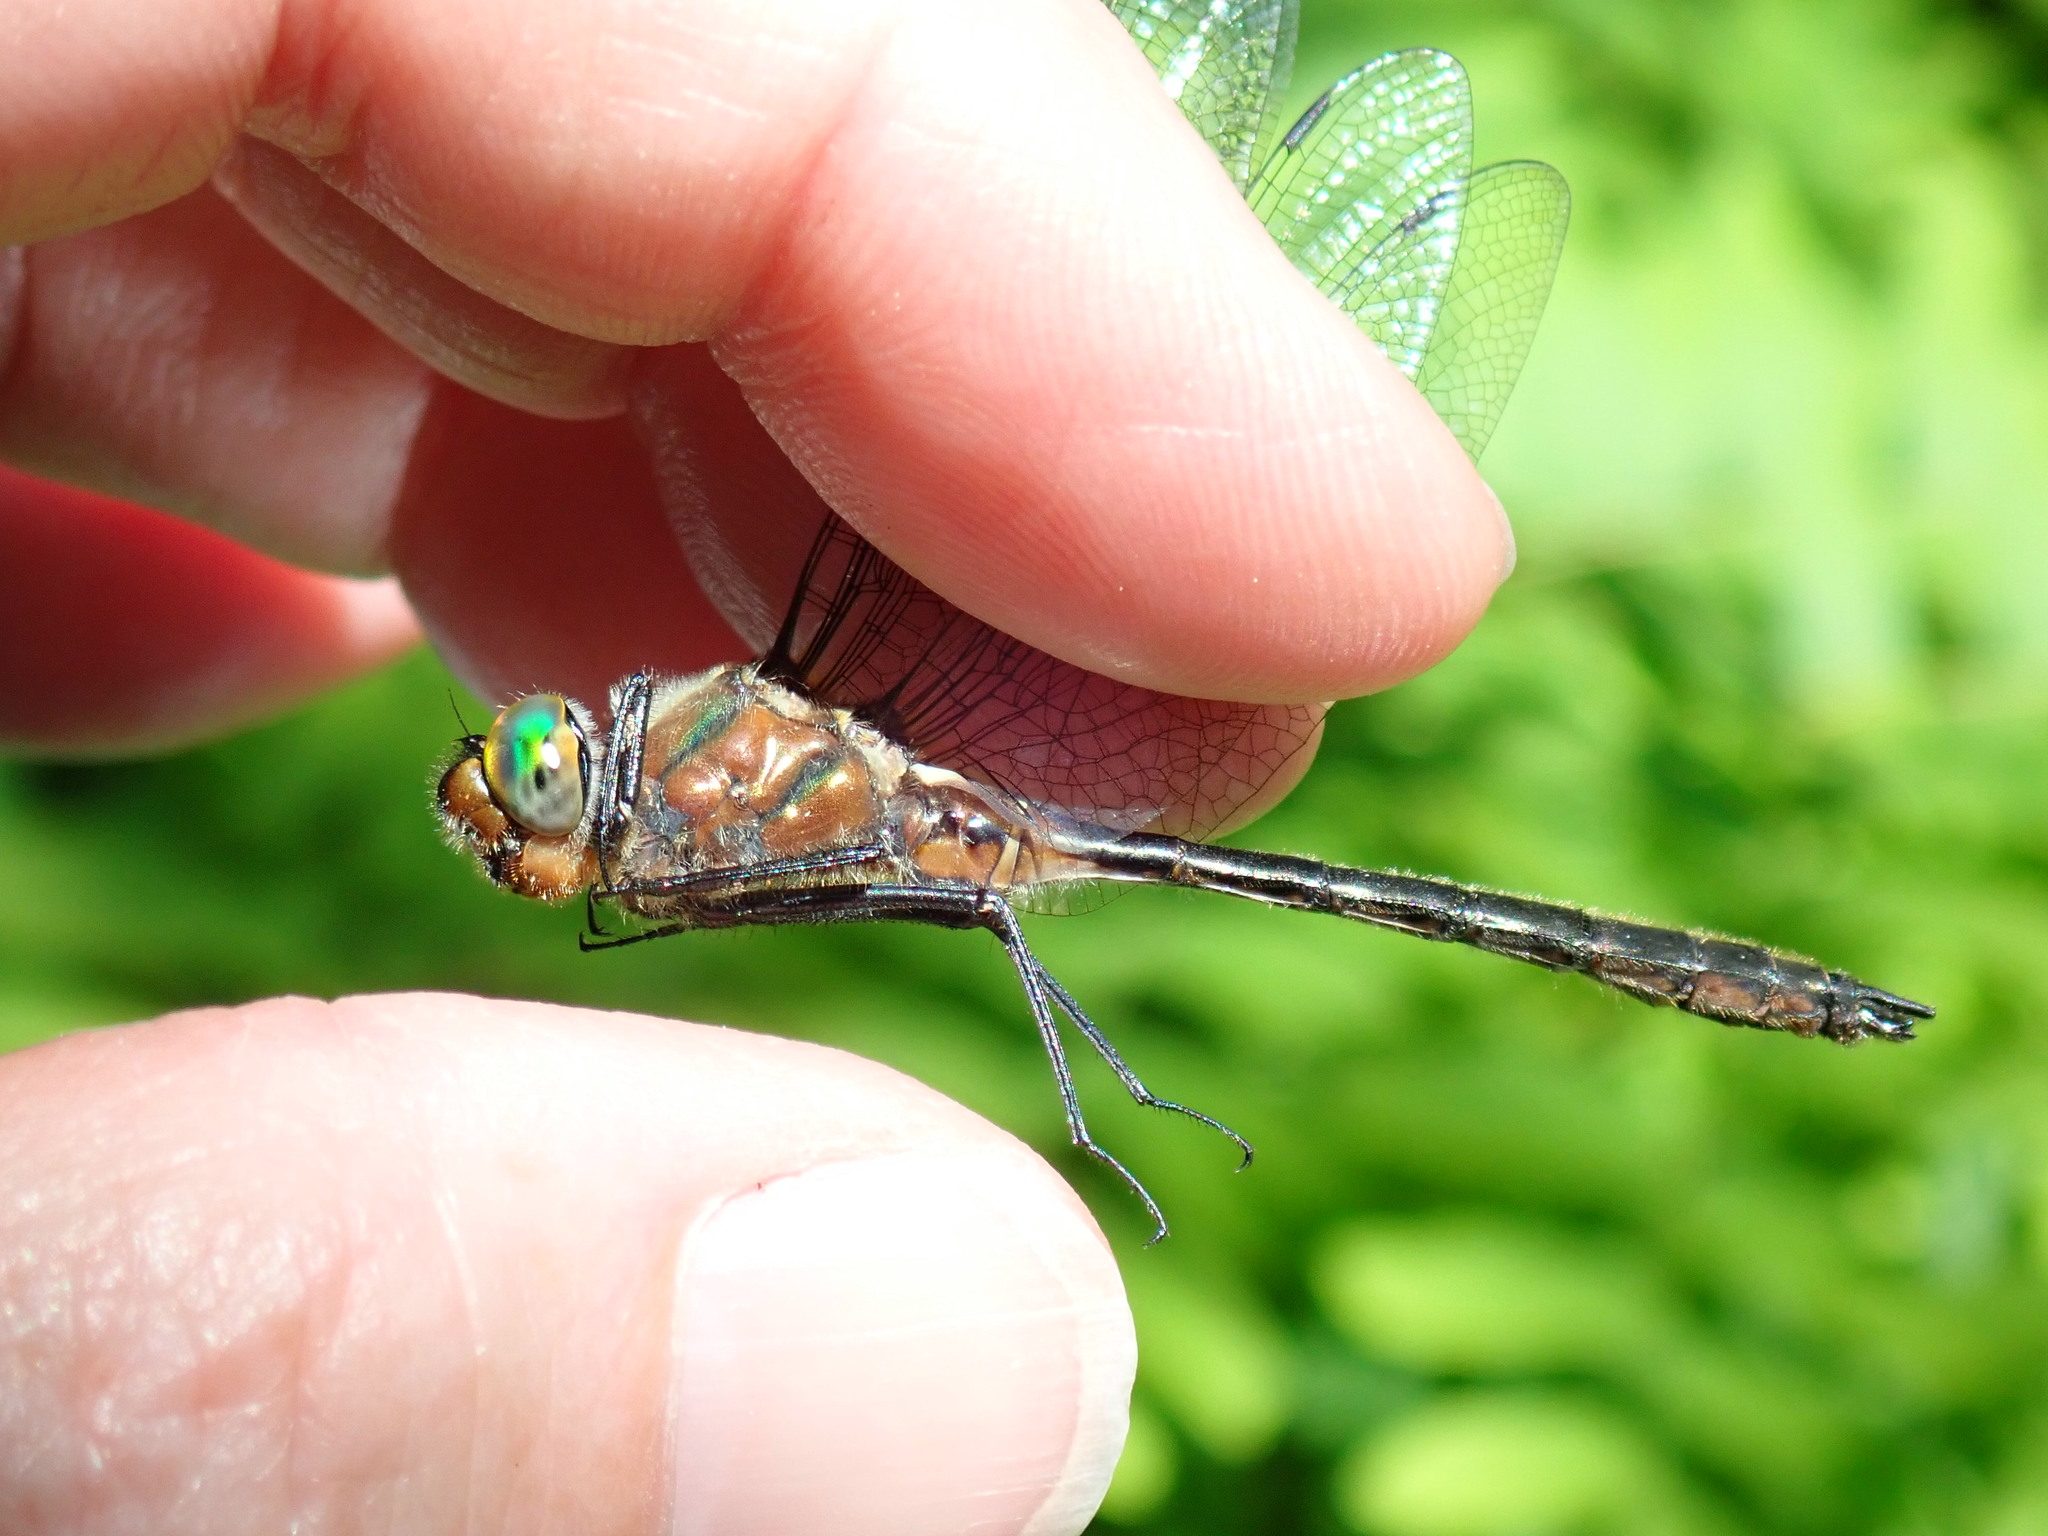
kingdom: Animalia
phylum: Arthropoda
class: Insecta
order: Odonata
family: Corduliidae
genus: Cordulia
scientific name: Cordulia shurtleffii
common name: American emerald
